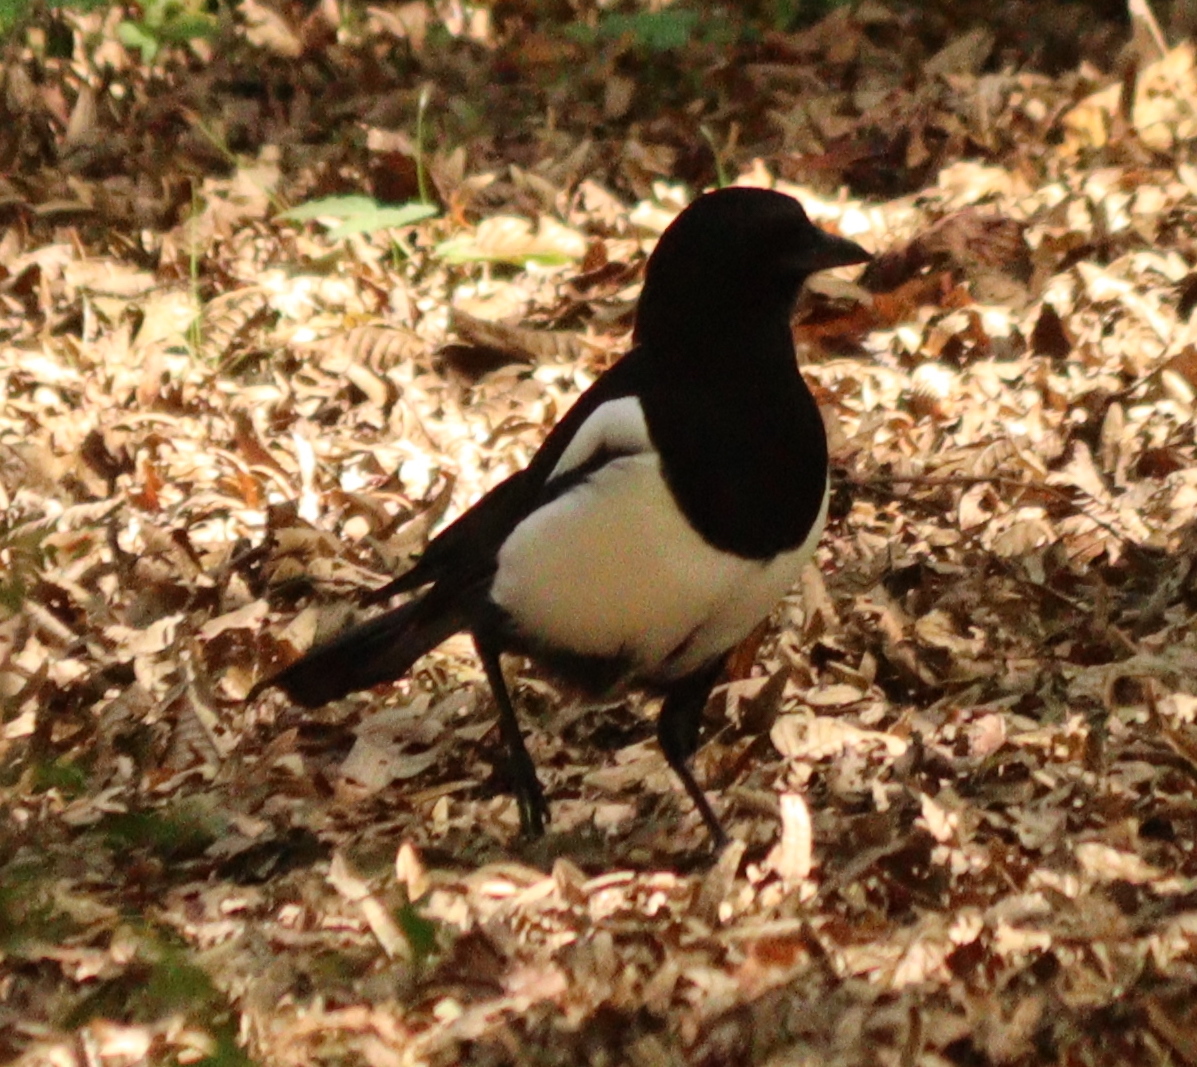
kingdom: Animalia
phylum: Chordata
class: Aves
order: Passeriformes
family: Corvidae
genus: Pica
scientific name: Pica pica
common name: Eurasian magpie
